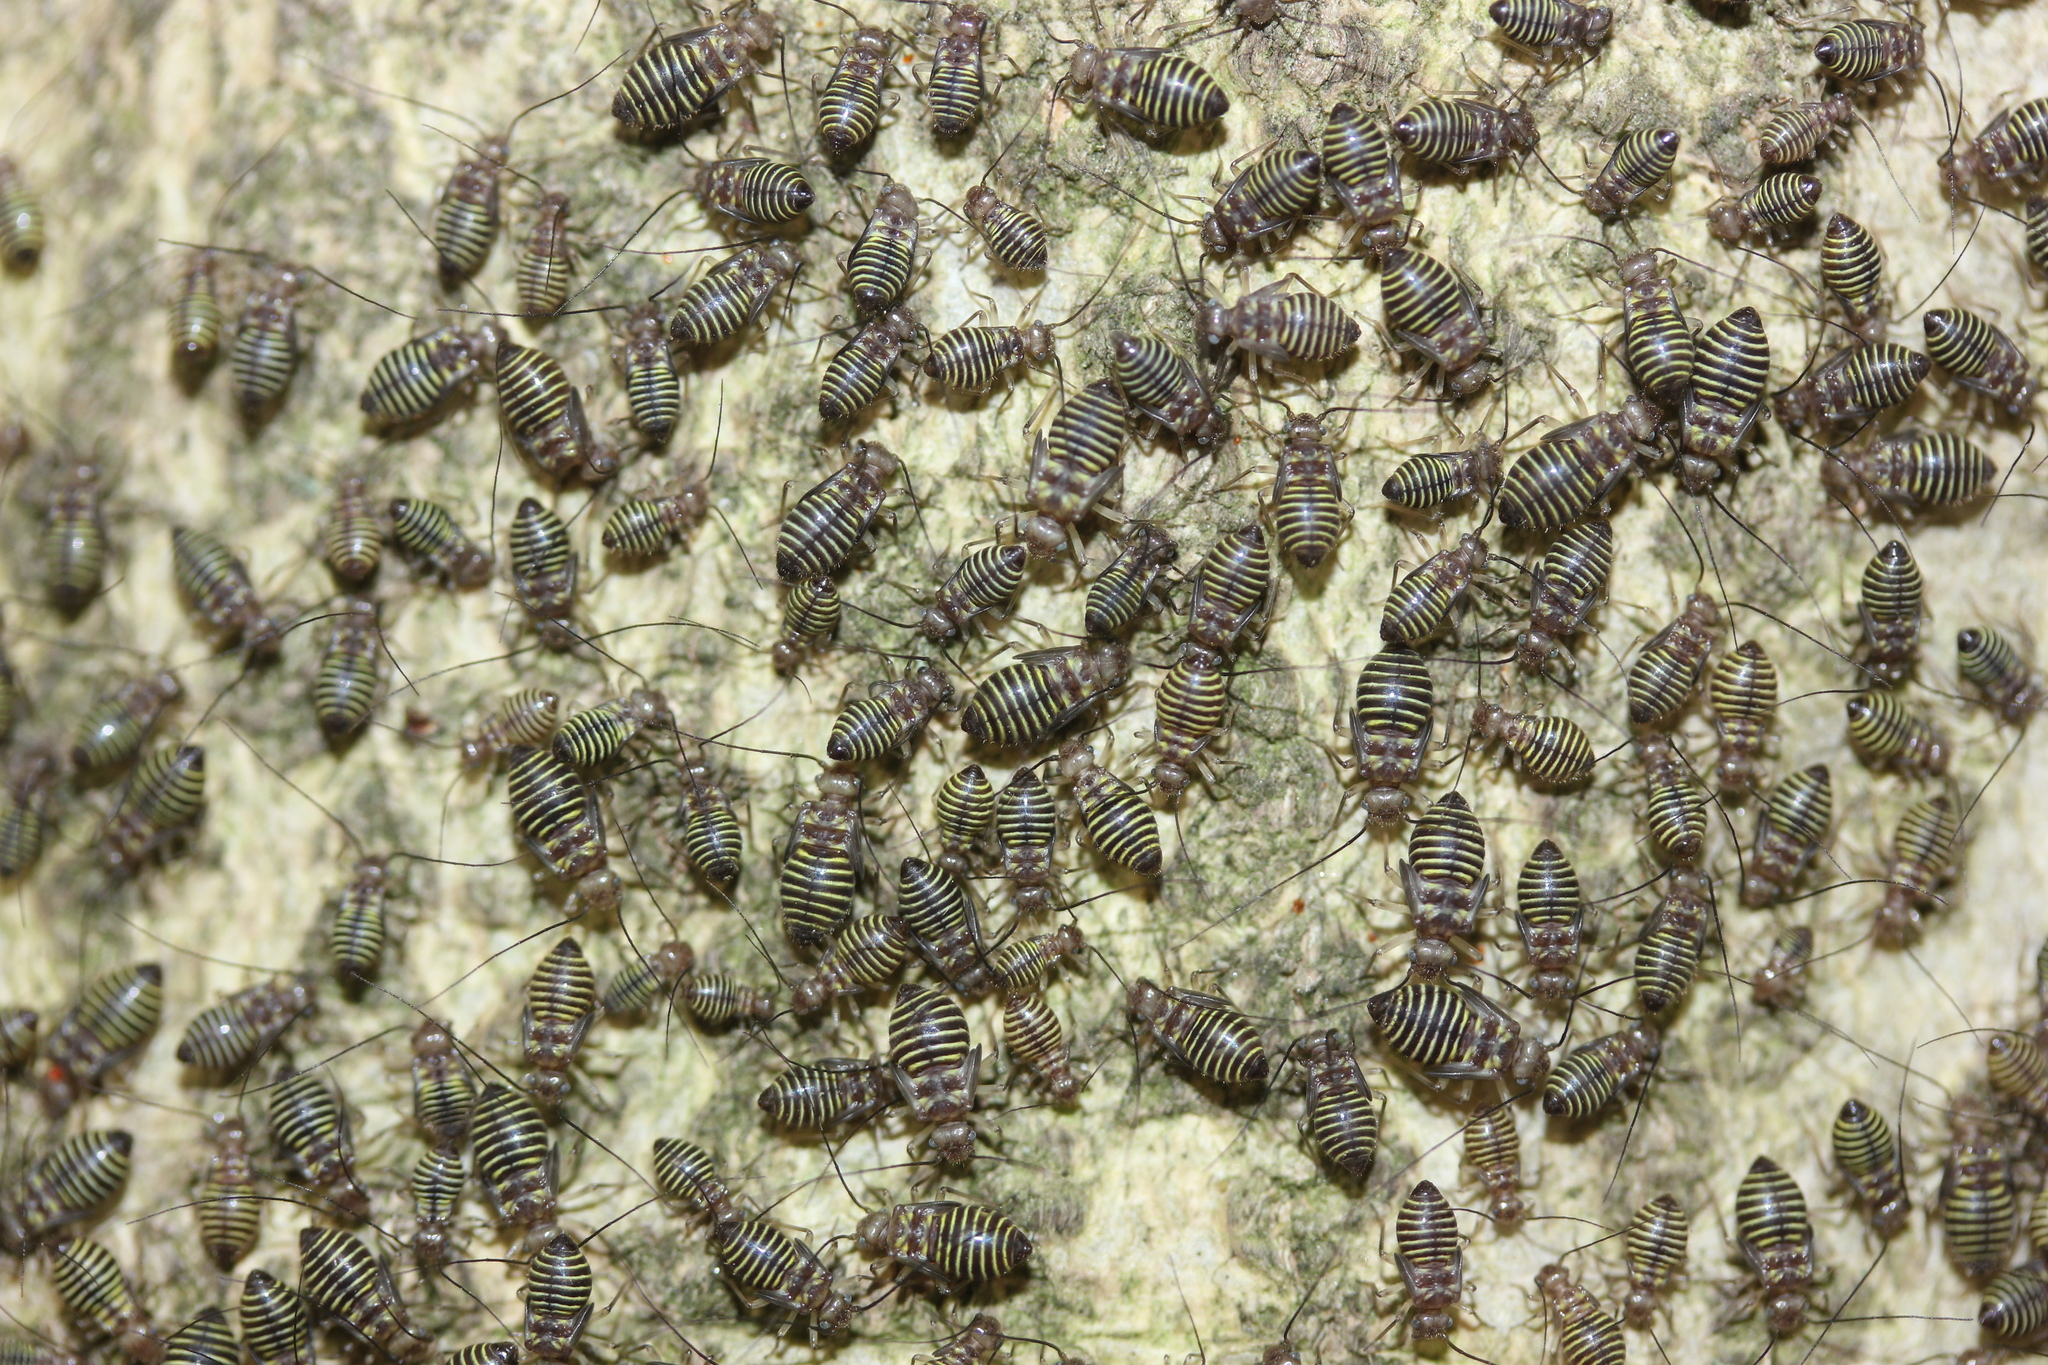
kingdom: Animalia
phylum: Arthropoda
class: Insecta
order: Psocodea
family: Psocidae
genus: Cerastipsocus
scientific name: Cerastipsocus venosus
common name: Tree cattle
